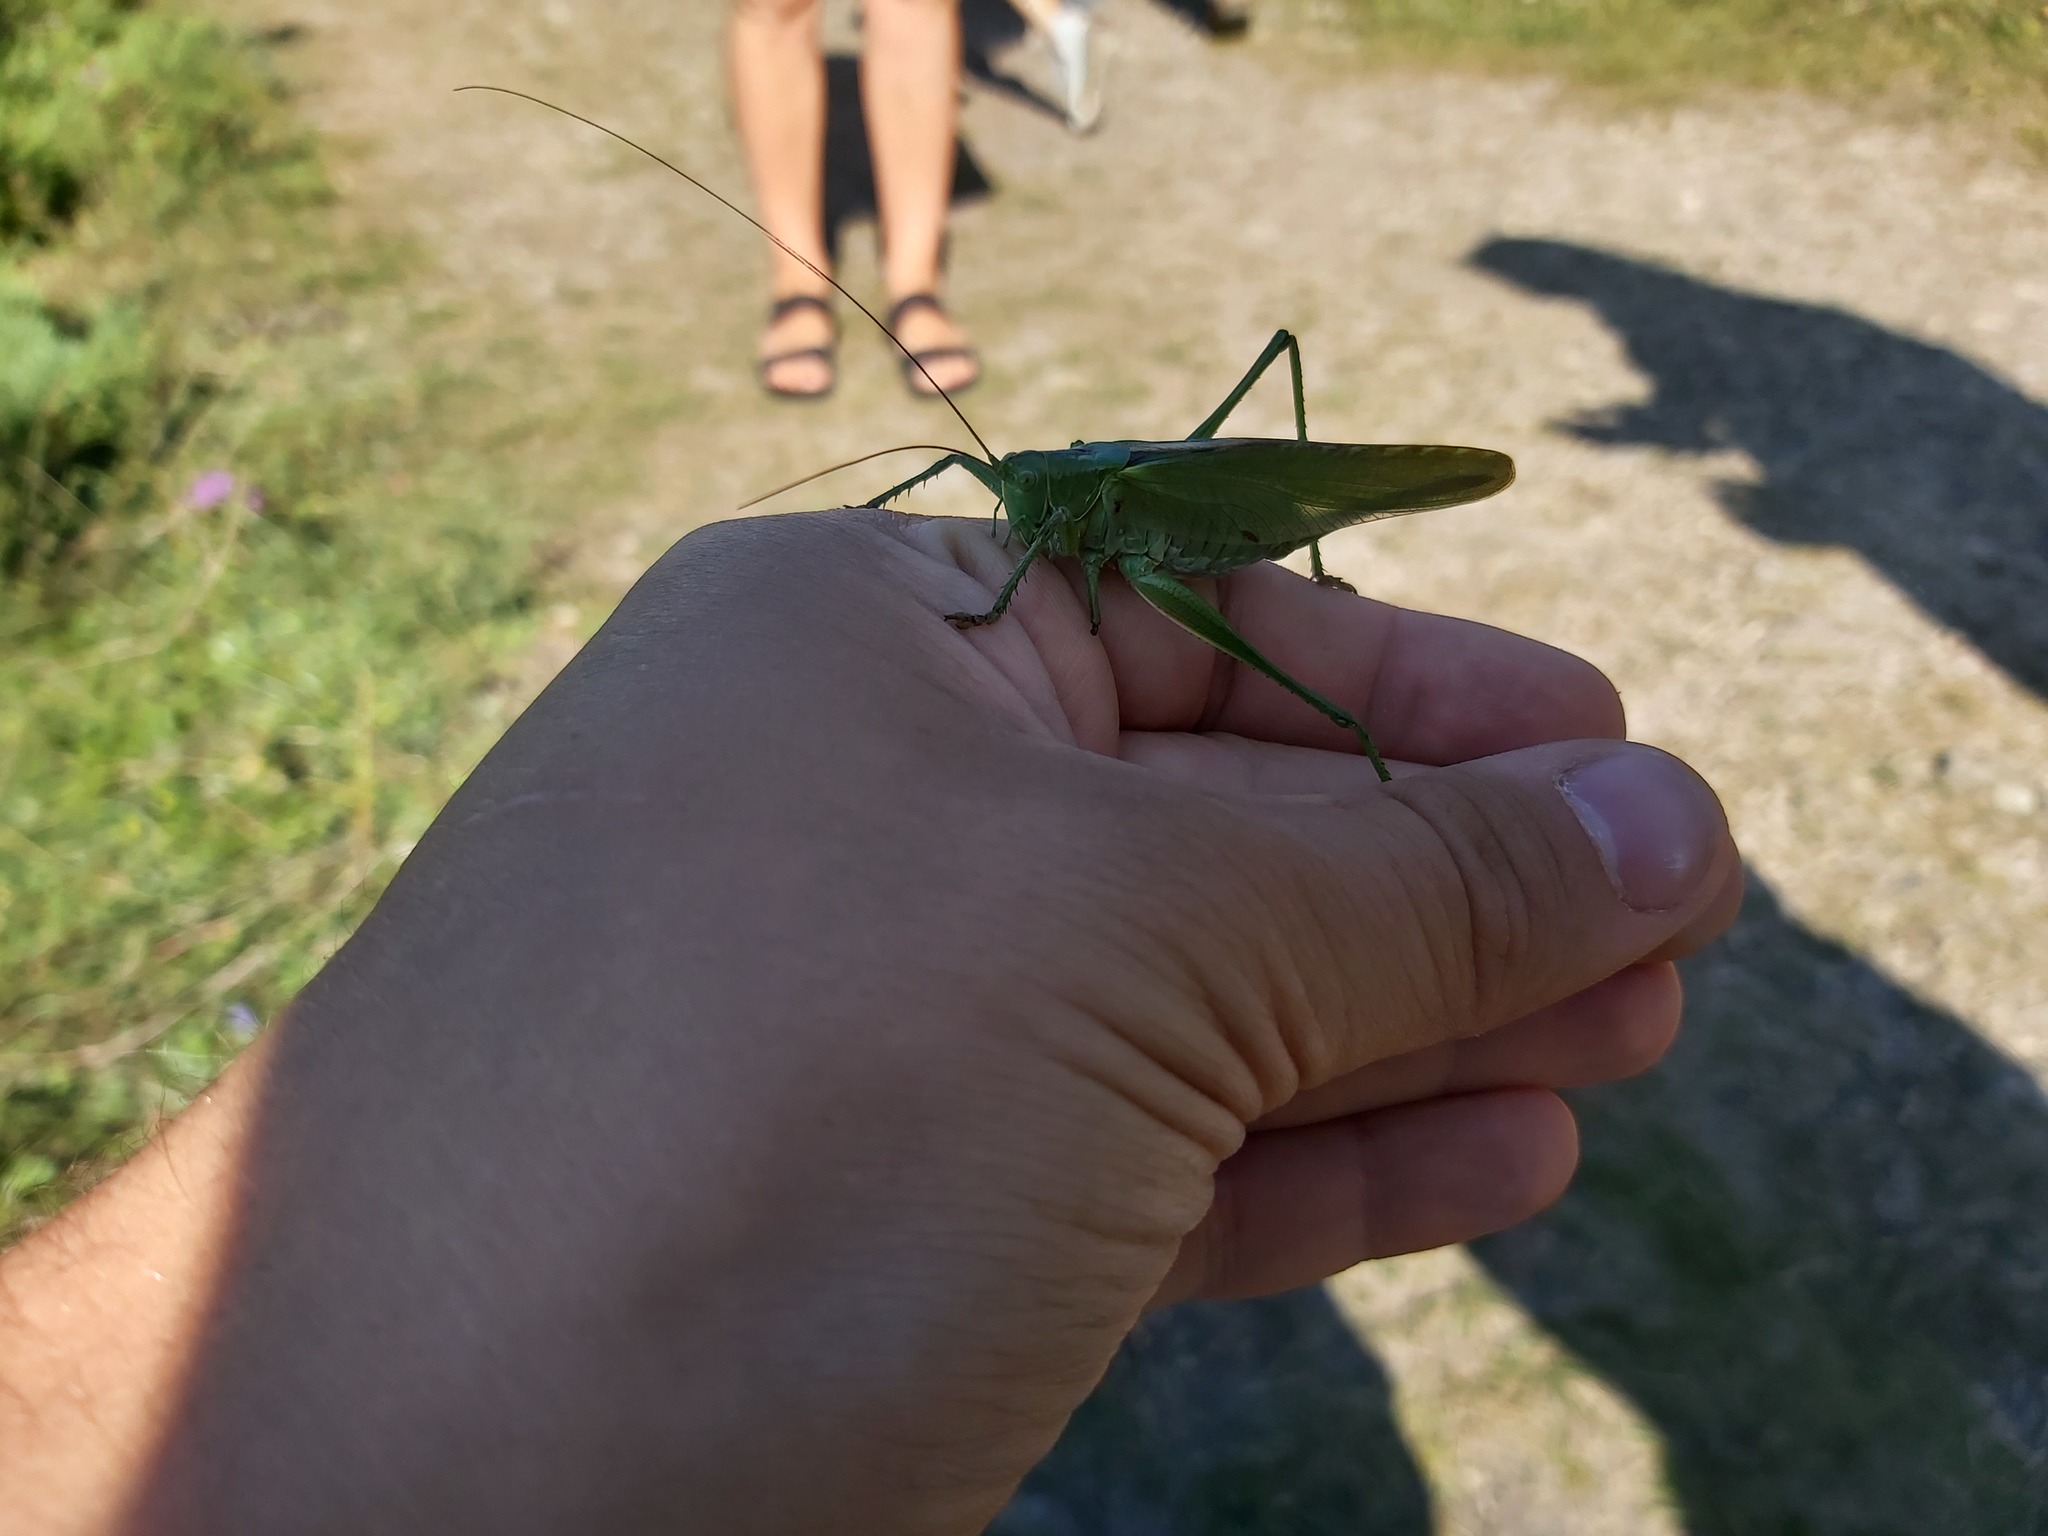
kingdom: Animalia
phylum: Arthropoda
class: Insecta
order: Orthoptera
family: Tettigoniidae
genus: Tettigonia
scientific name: Tettigonia viridissima
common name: Great green bush-cricket
